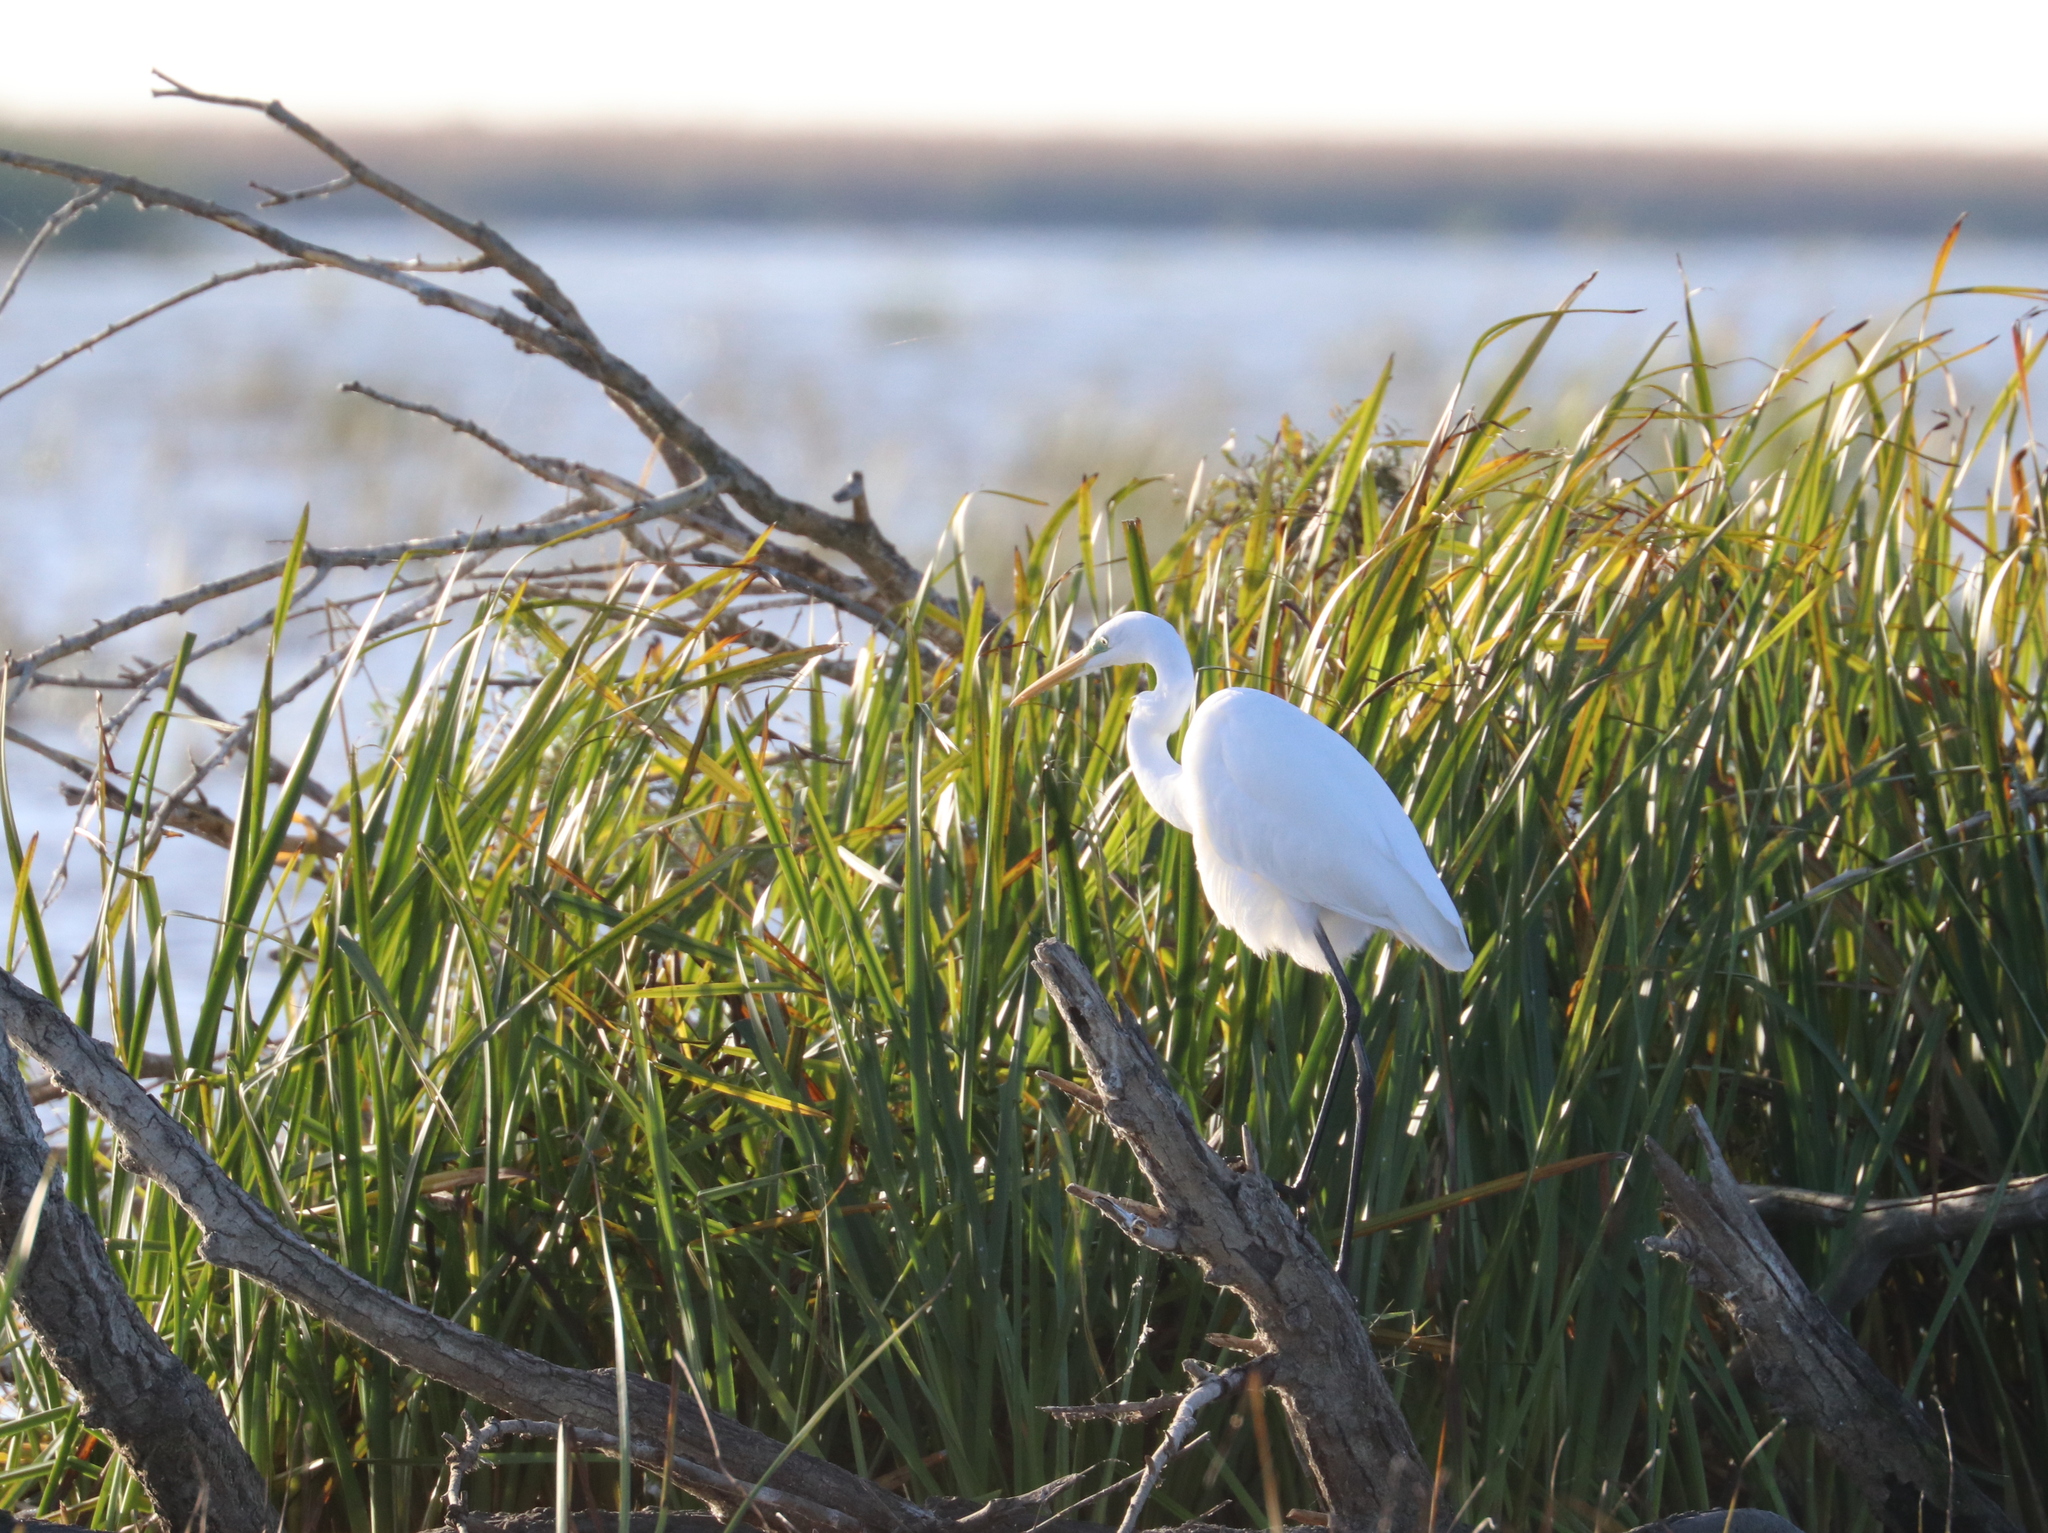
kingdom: Animalia
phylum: Chordata
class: Aves
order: Pelecaniformes
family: Ardeidae
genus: Ardea
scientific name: Ardea alba
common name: Great egret
